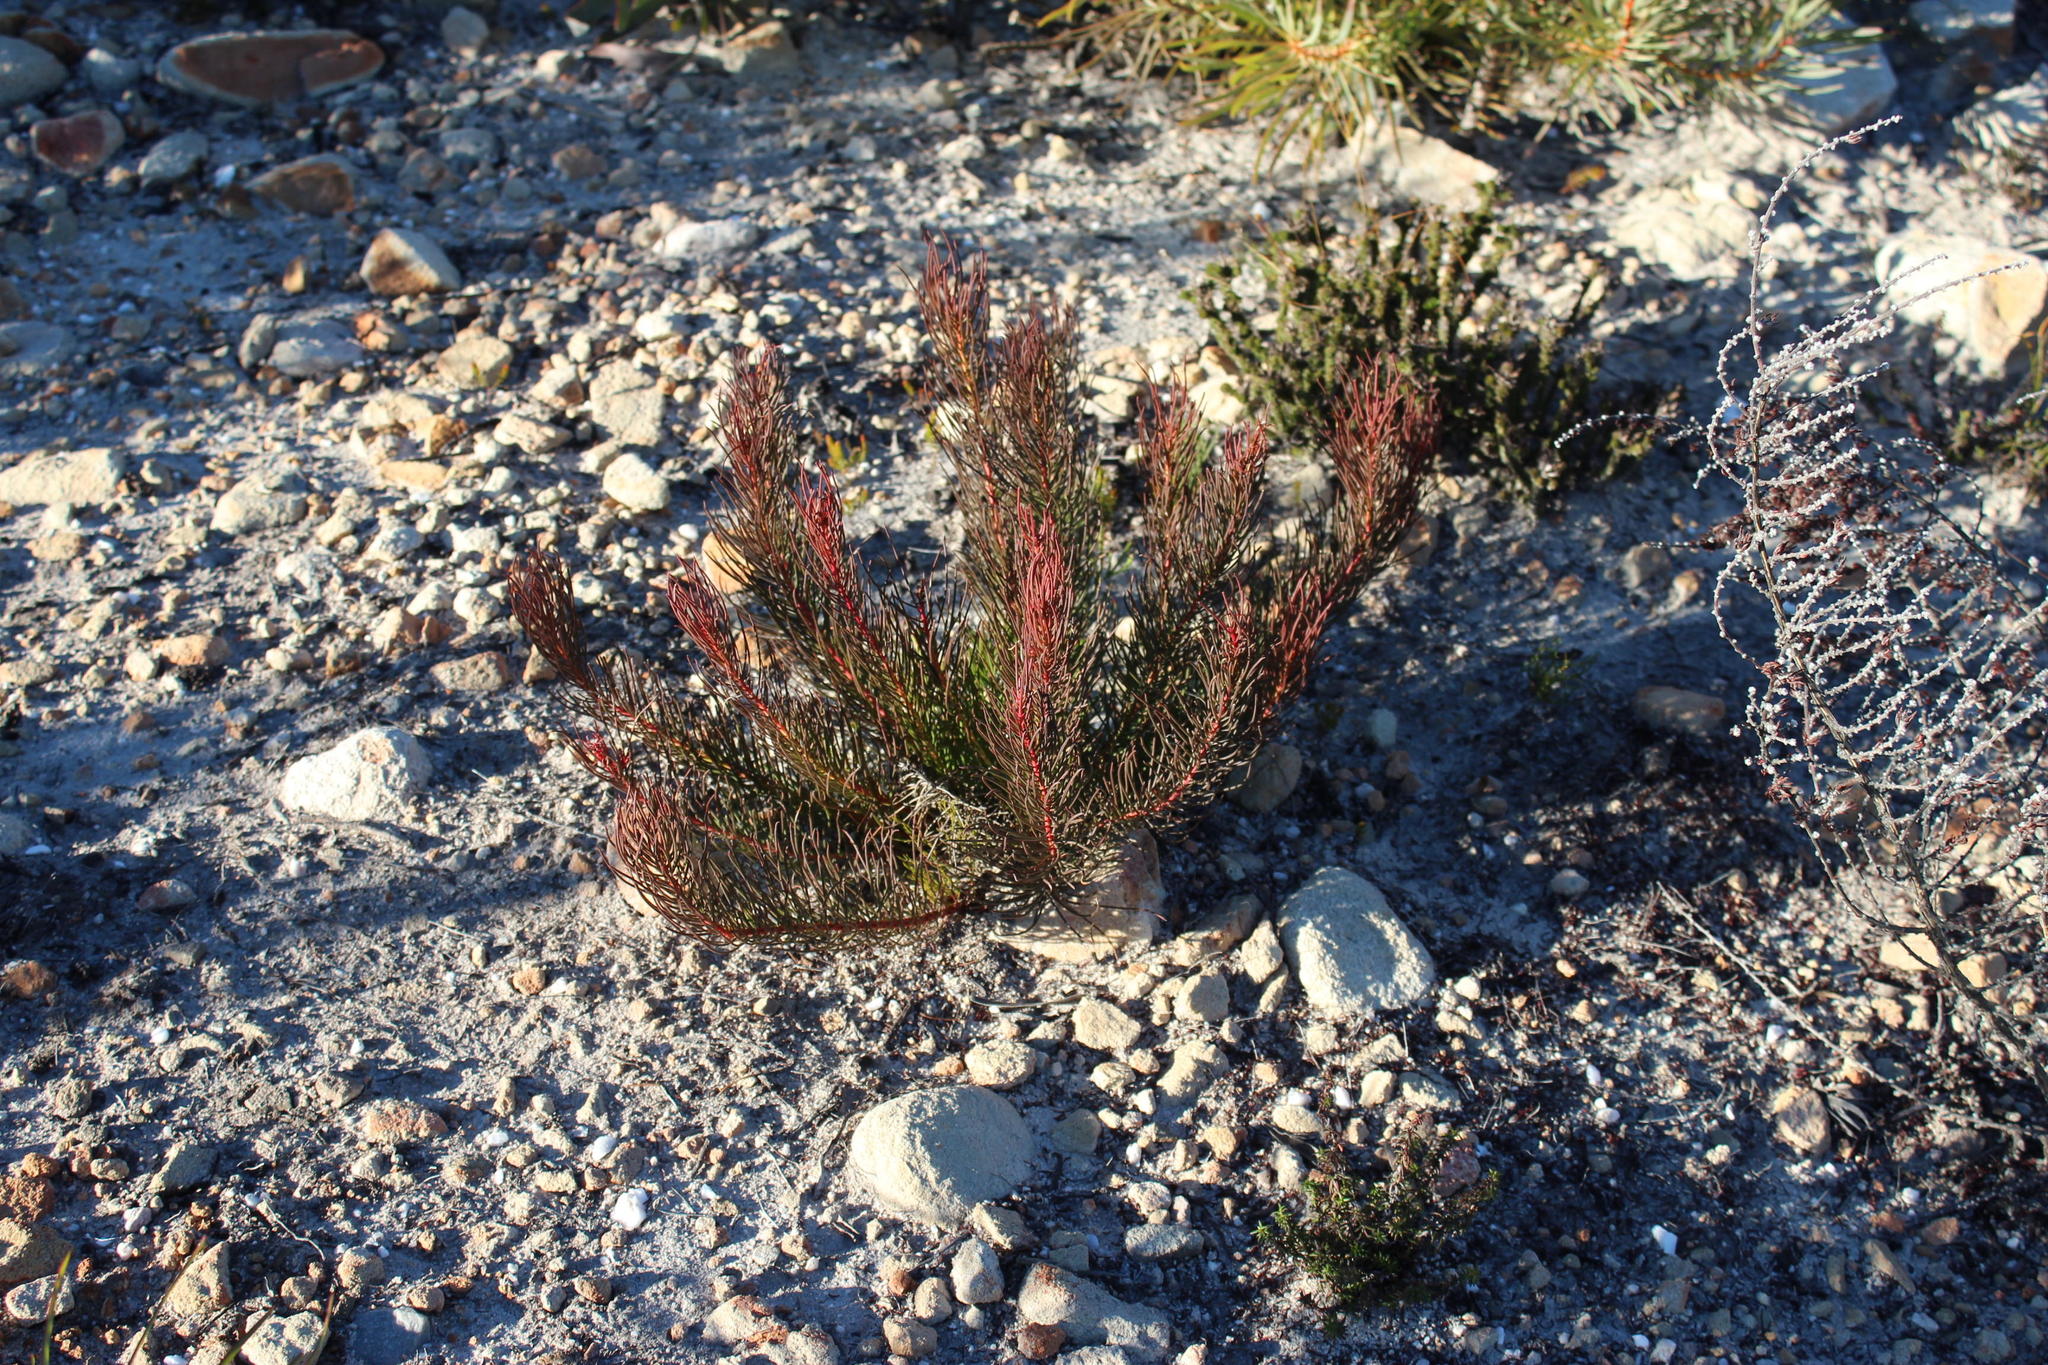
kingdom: Plantae
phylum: Tracheophyta
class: Magnoliopsida
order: Proteales
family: Proteaceae
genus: Protea
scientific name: Protea subulifolia
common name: Awl-leaf sugarbush
